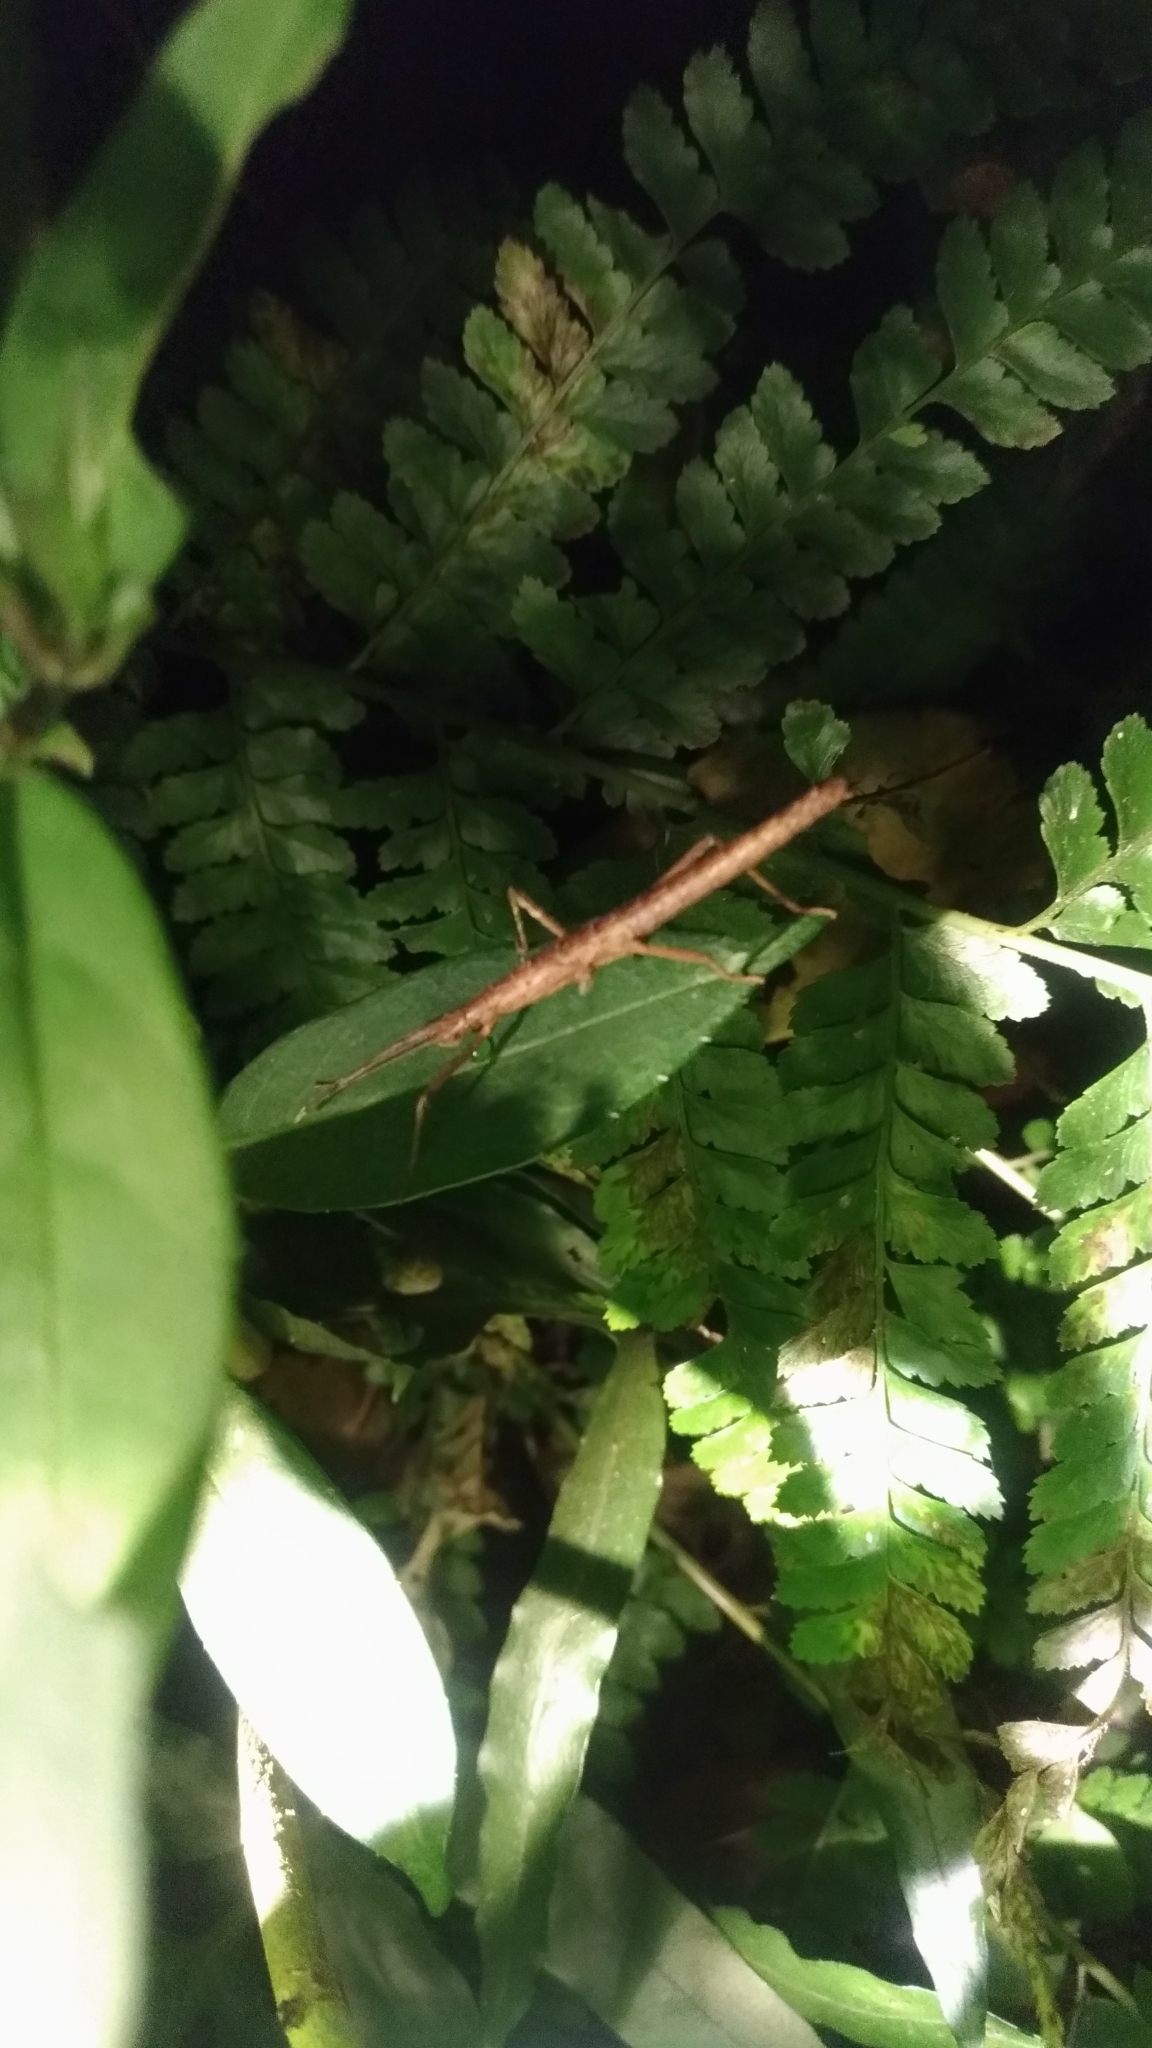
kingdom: Animalia
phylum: Arthropoda
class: Insecta
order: Phasmida
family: Lonchodidae
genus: Neohirasea
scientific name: Neohirasea japonica
